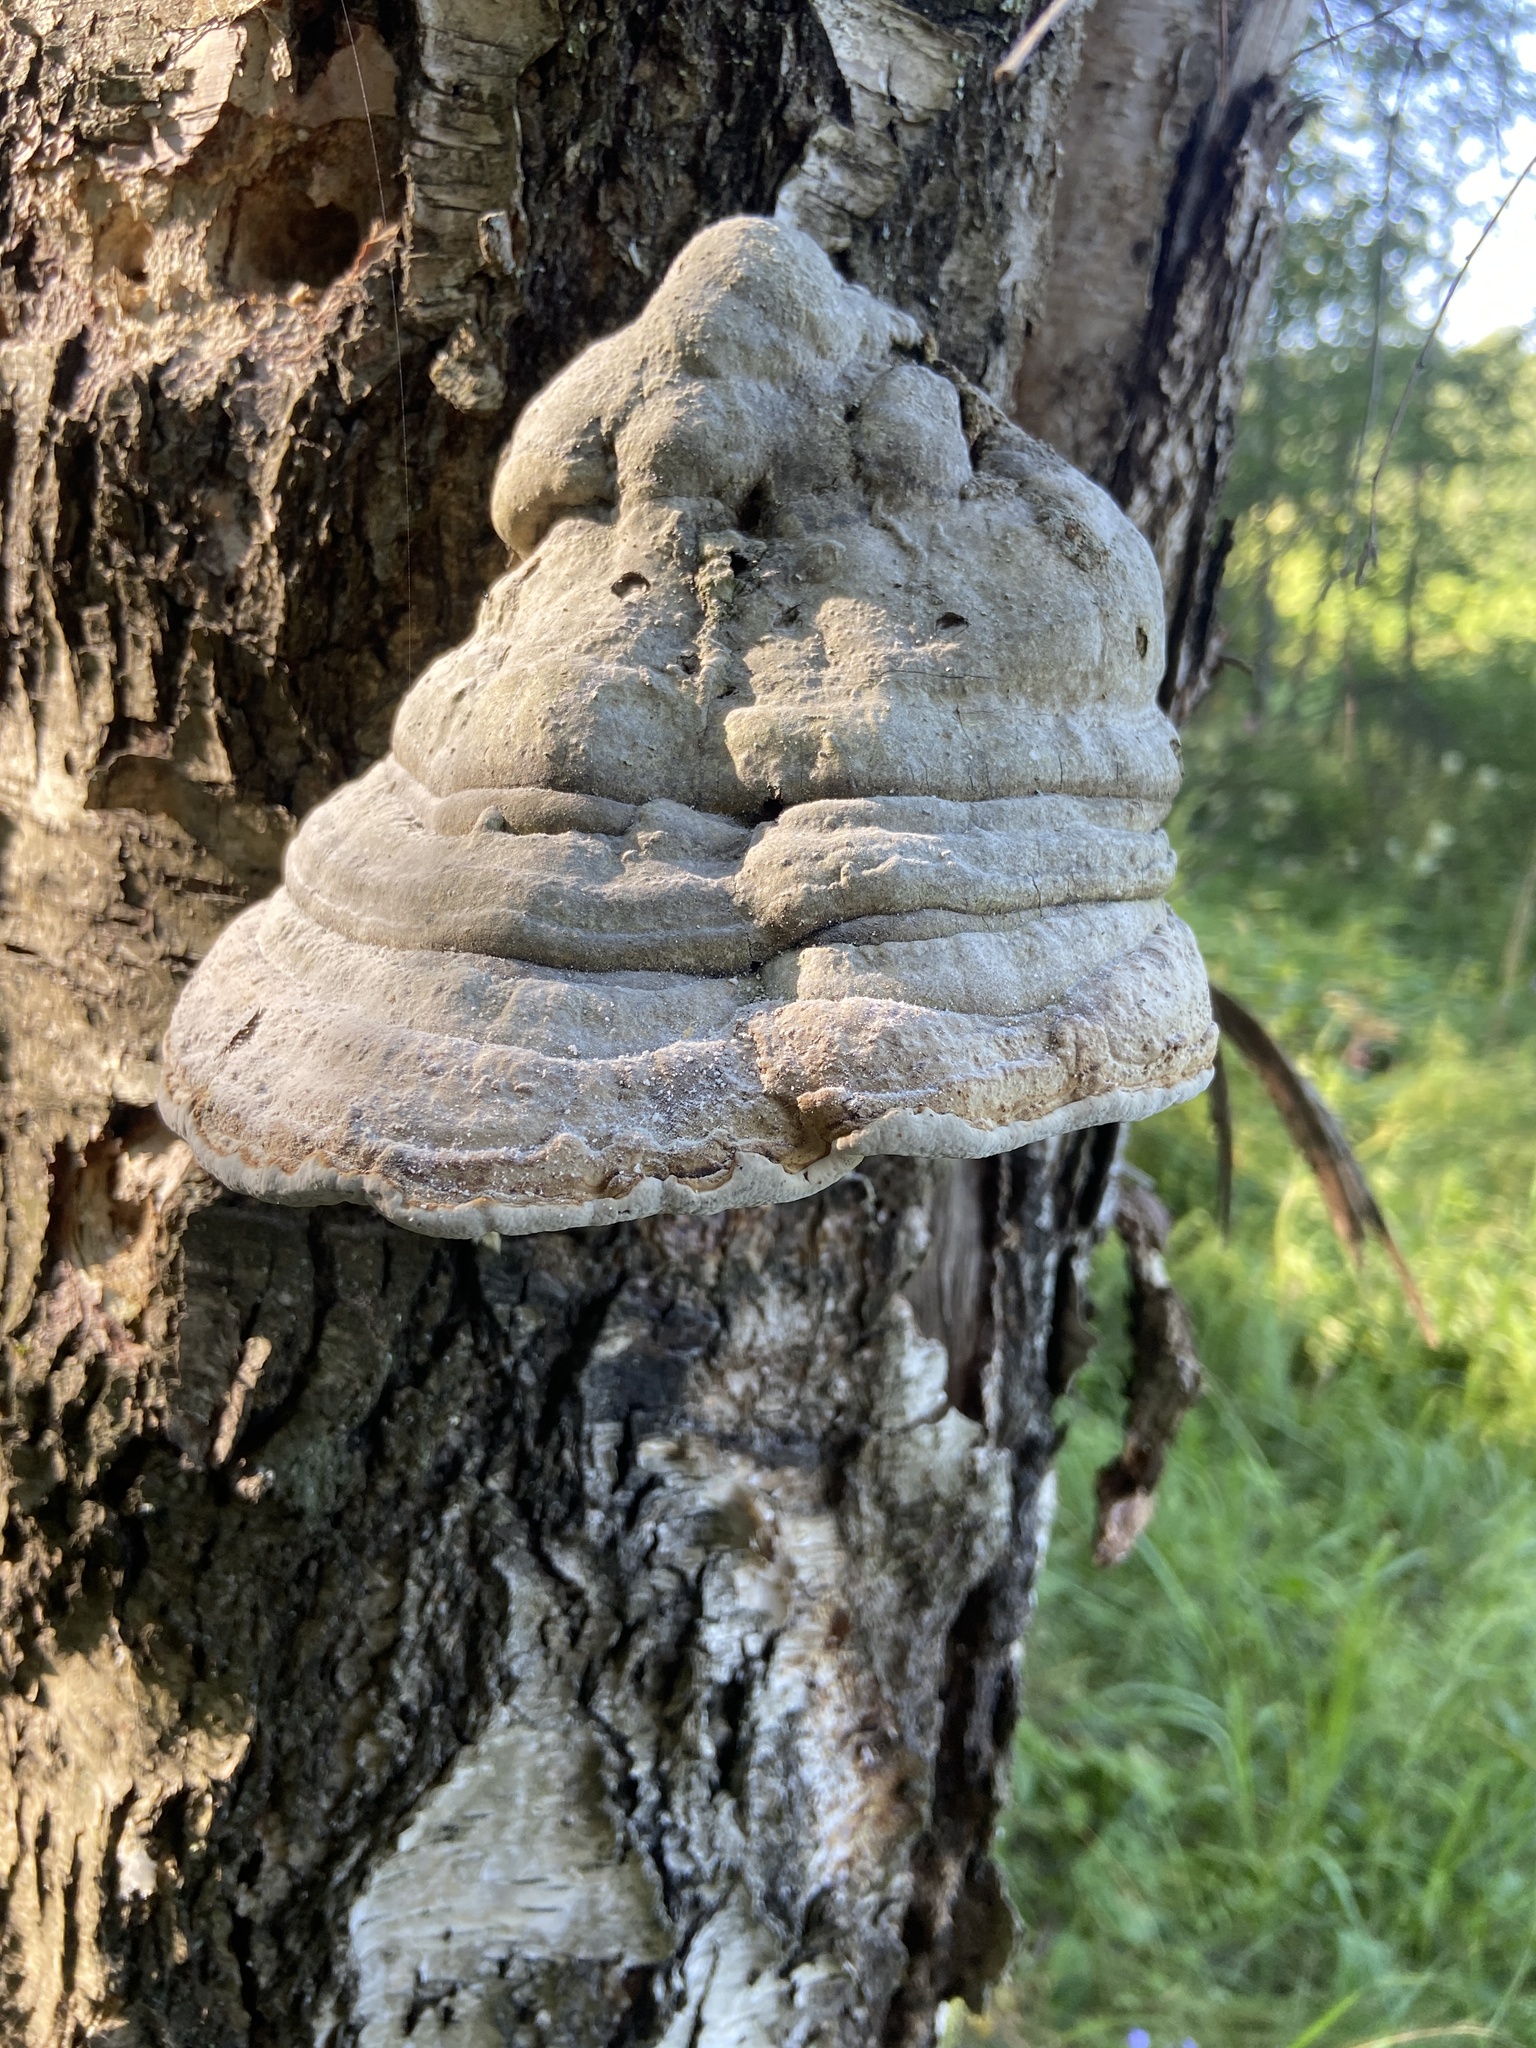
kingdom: Fungi
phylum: Basidiomycota
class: Agaricomycetes
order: Polyporales
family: Polyporaceae
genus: Fomes
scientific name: Fomes fomentarius
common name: Hoof fungus
